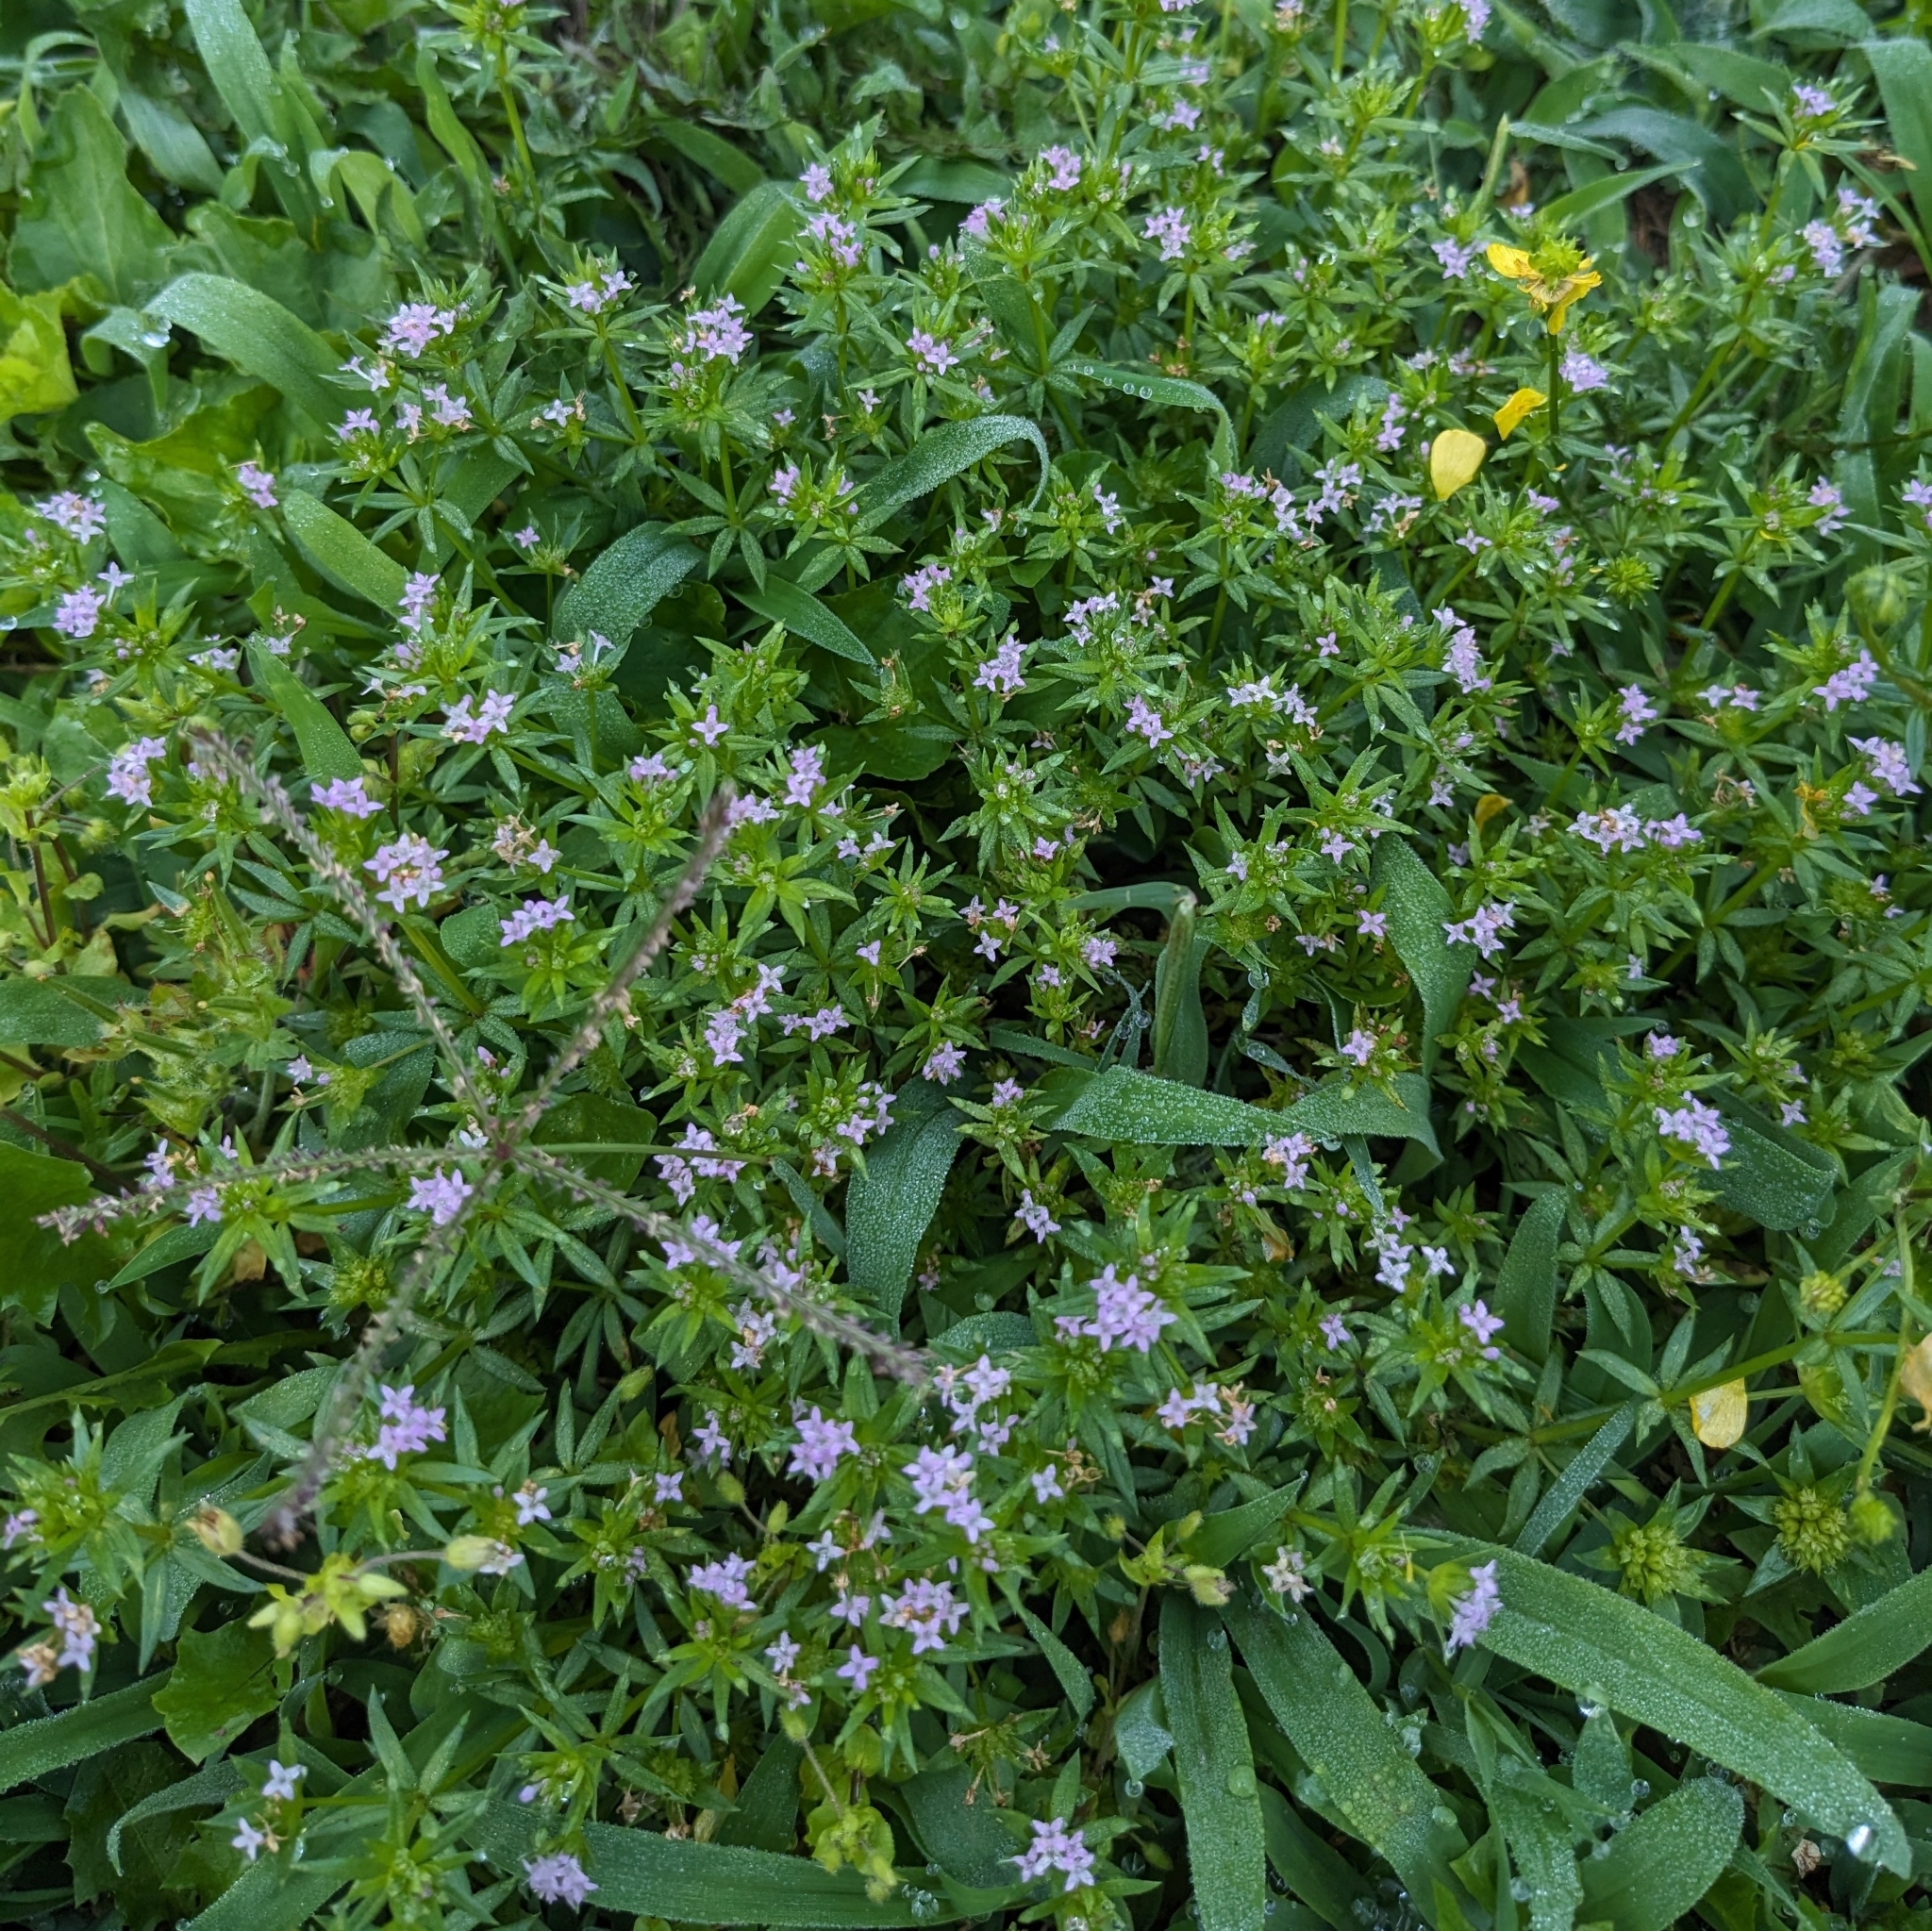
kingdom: Plantae
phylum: Tracheophyta
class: Magnoliopsida
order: Gentianales
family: Rubiaceae
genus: Sherardia
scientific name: Sherardia arvensis
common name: Field madder
